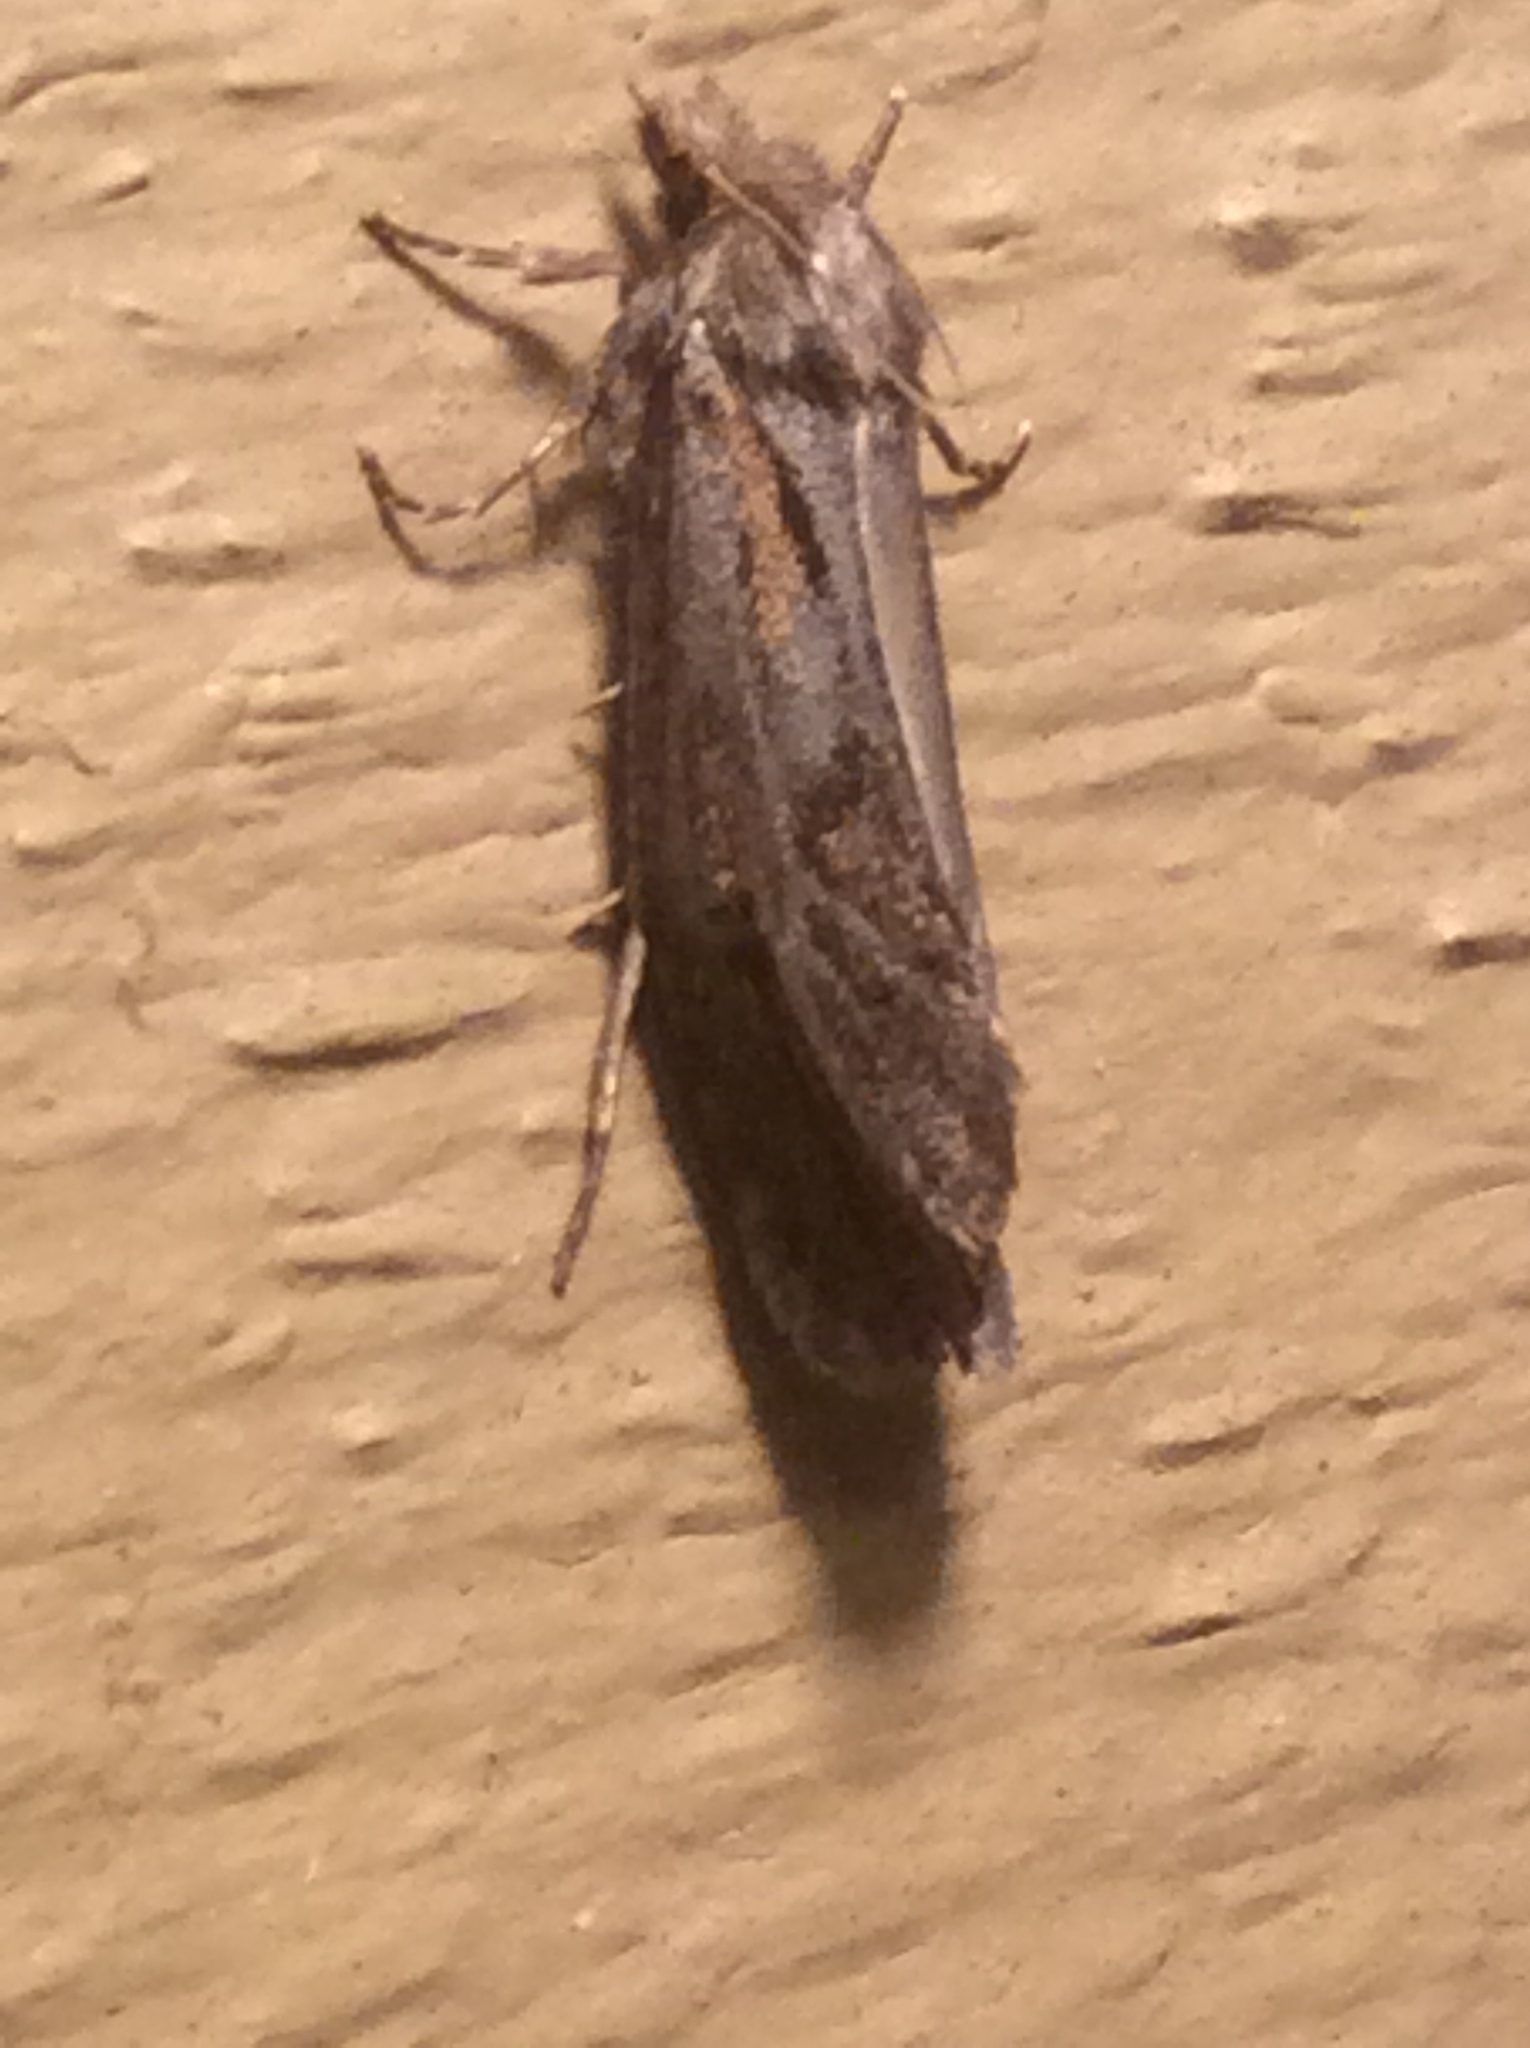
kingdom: Animalia
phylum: Arthropoda
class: Insecta
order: Lepidoptera
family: Tineidae
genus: Acrolophus
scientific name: Acrolophus popeanella
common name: Clemens' grass tubeworm moth
